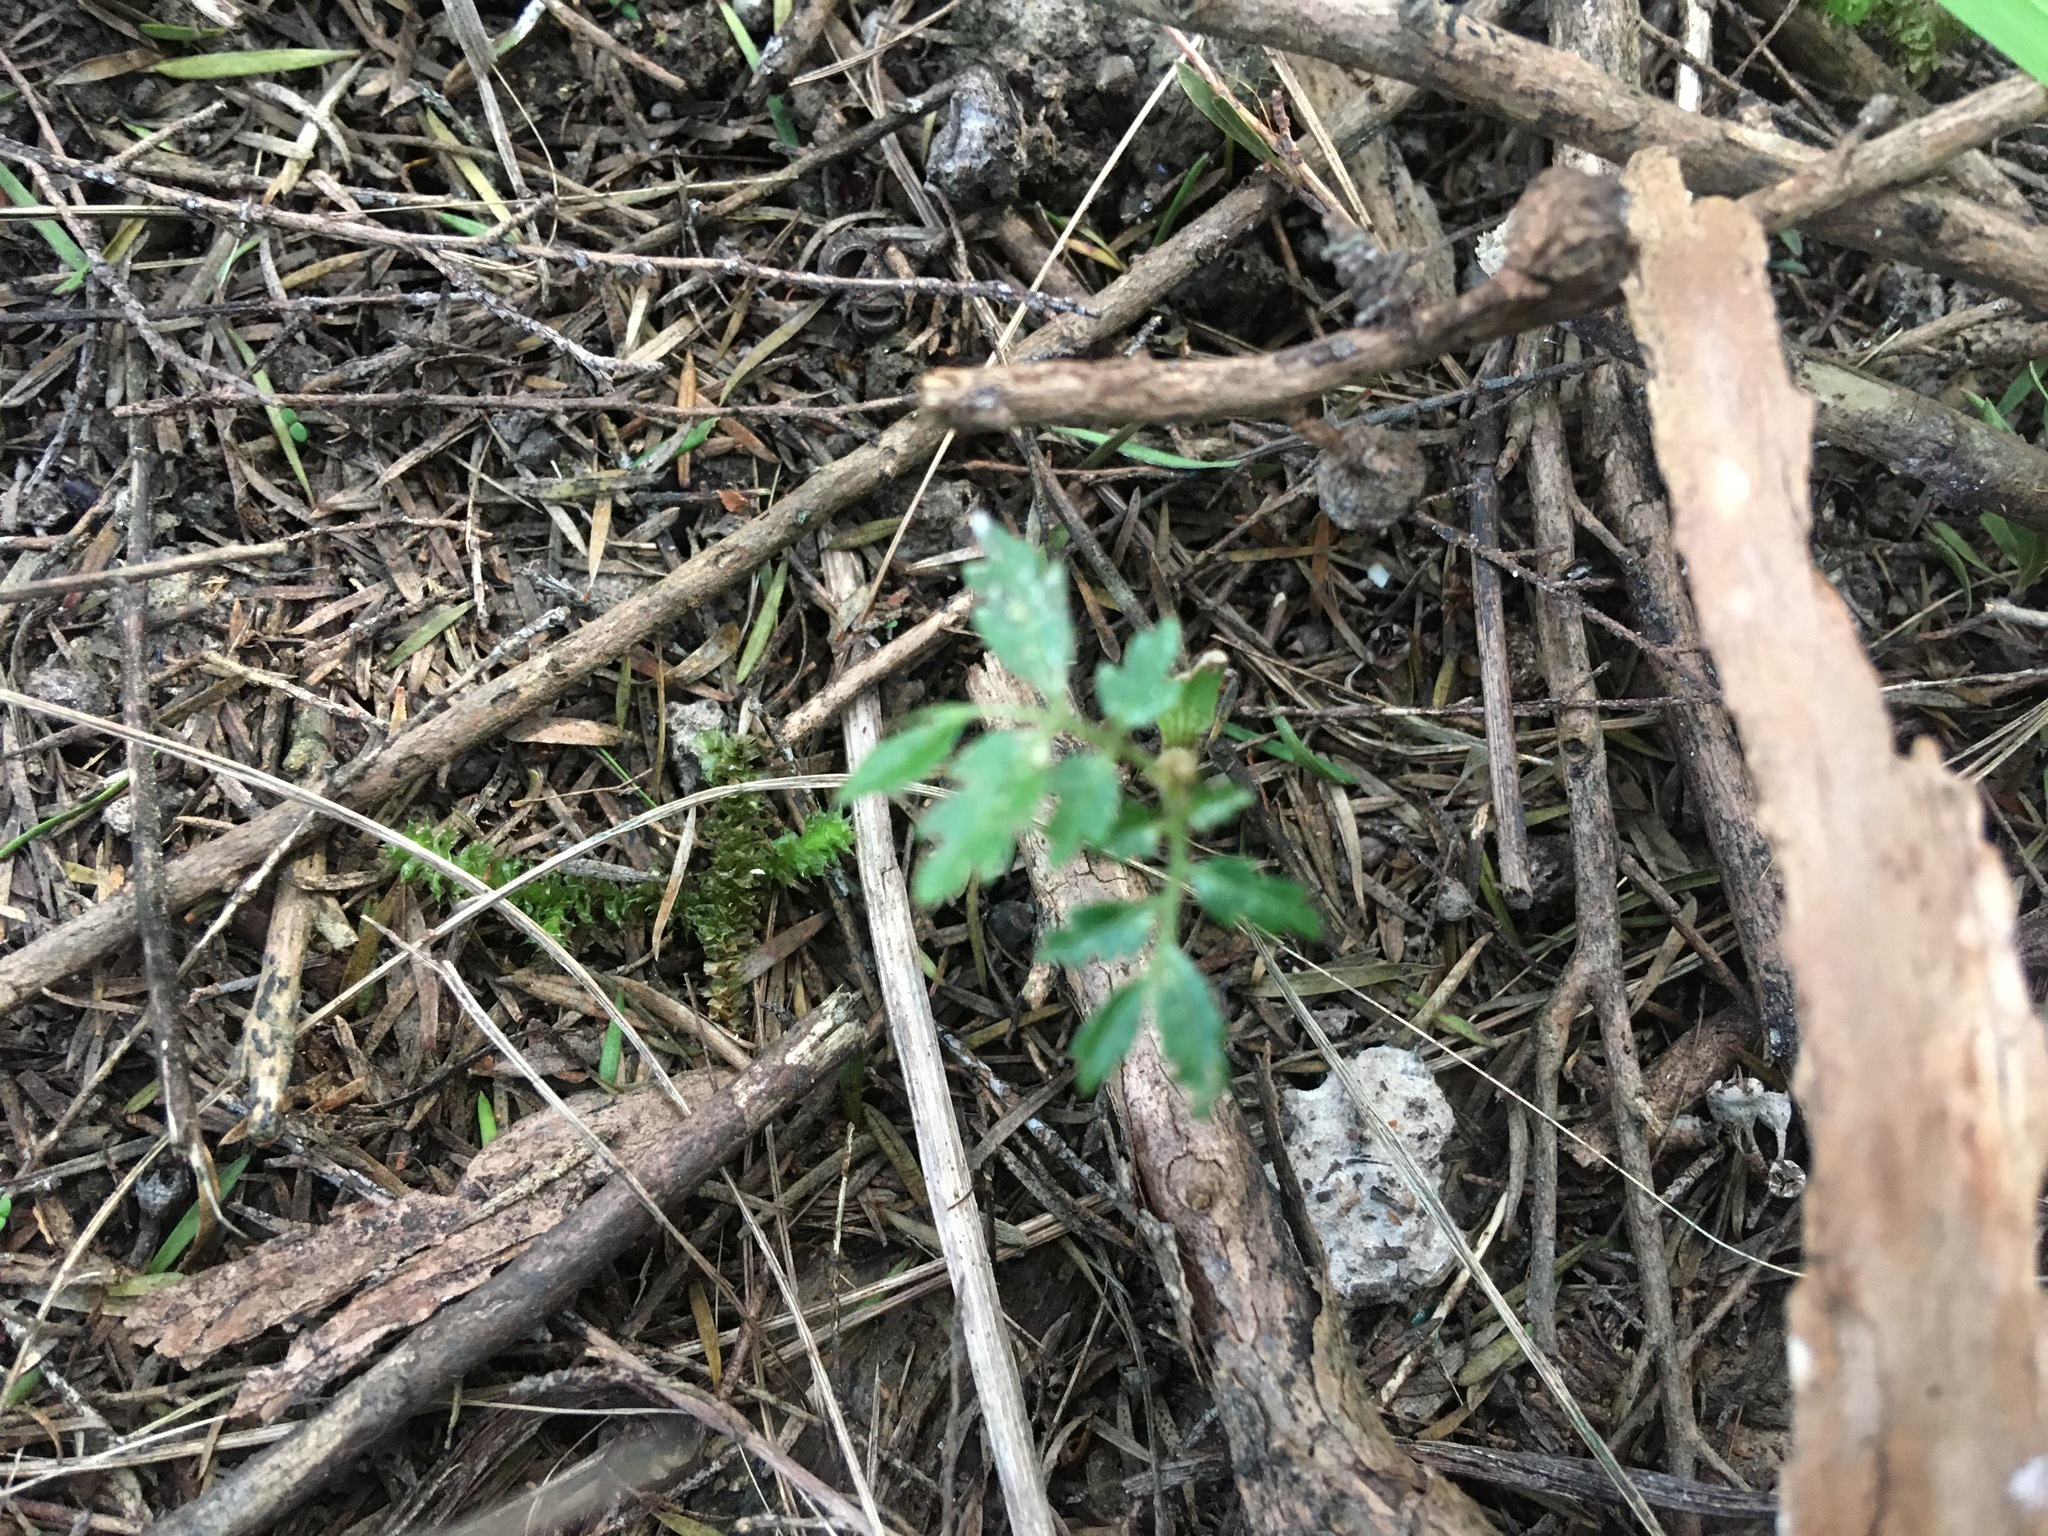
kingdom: Plantae
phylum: Tracheophyta
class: Magnoliopsida
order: Sapindales
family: Sapindaceae
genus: Alectryon
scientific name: Alectryon excelsus
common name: Three kings titoki
